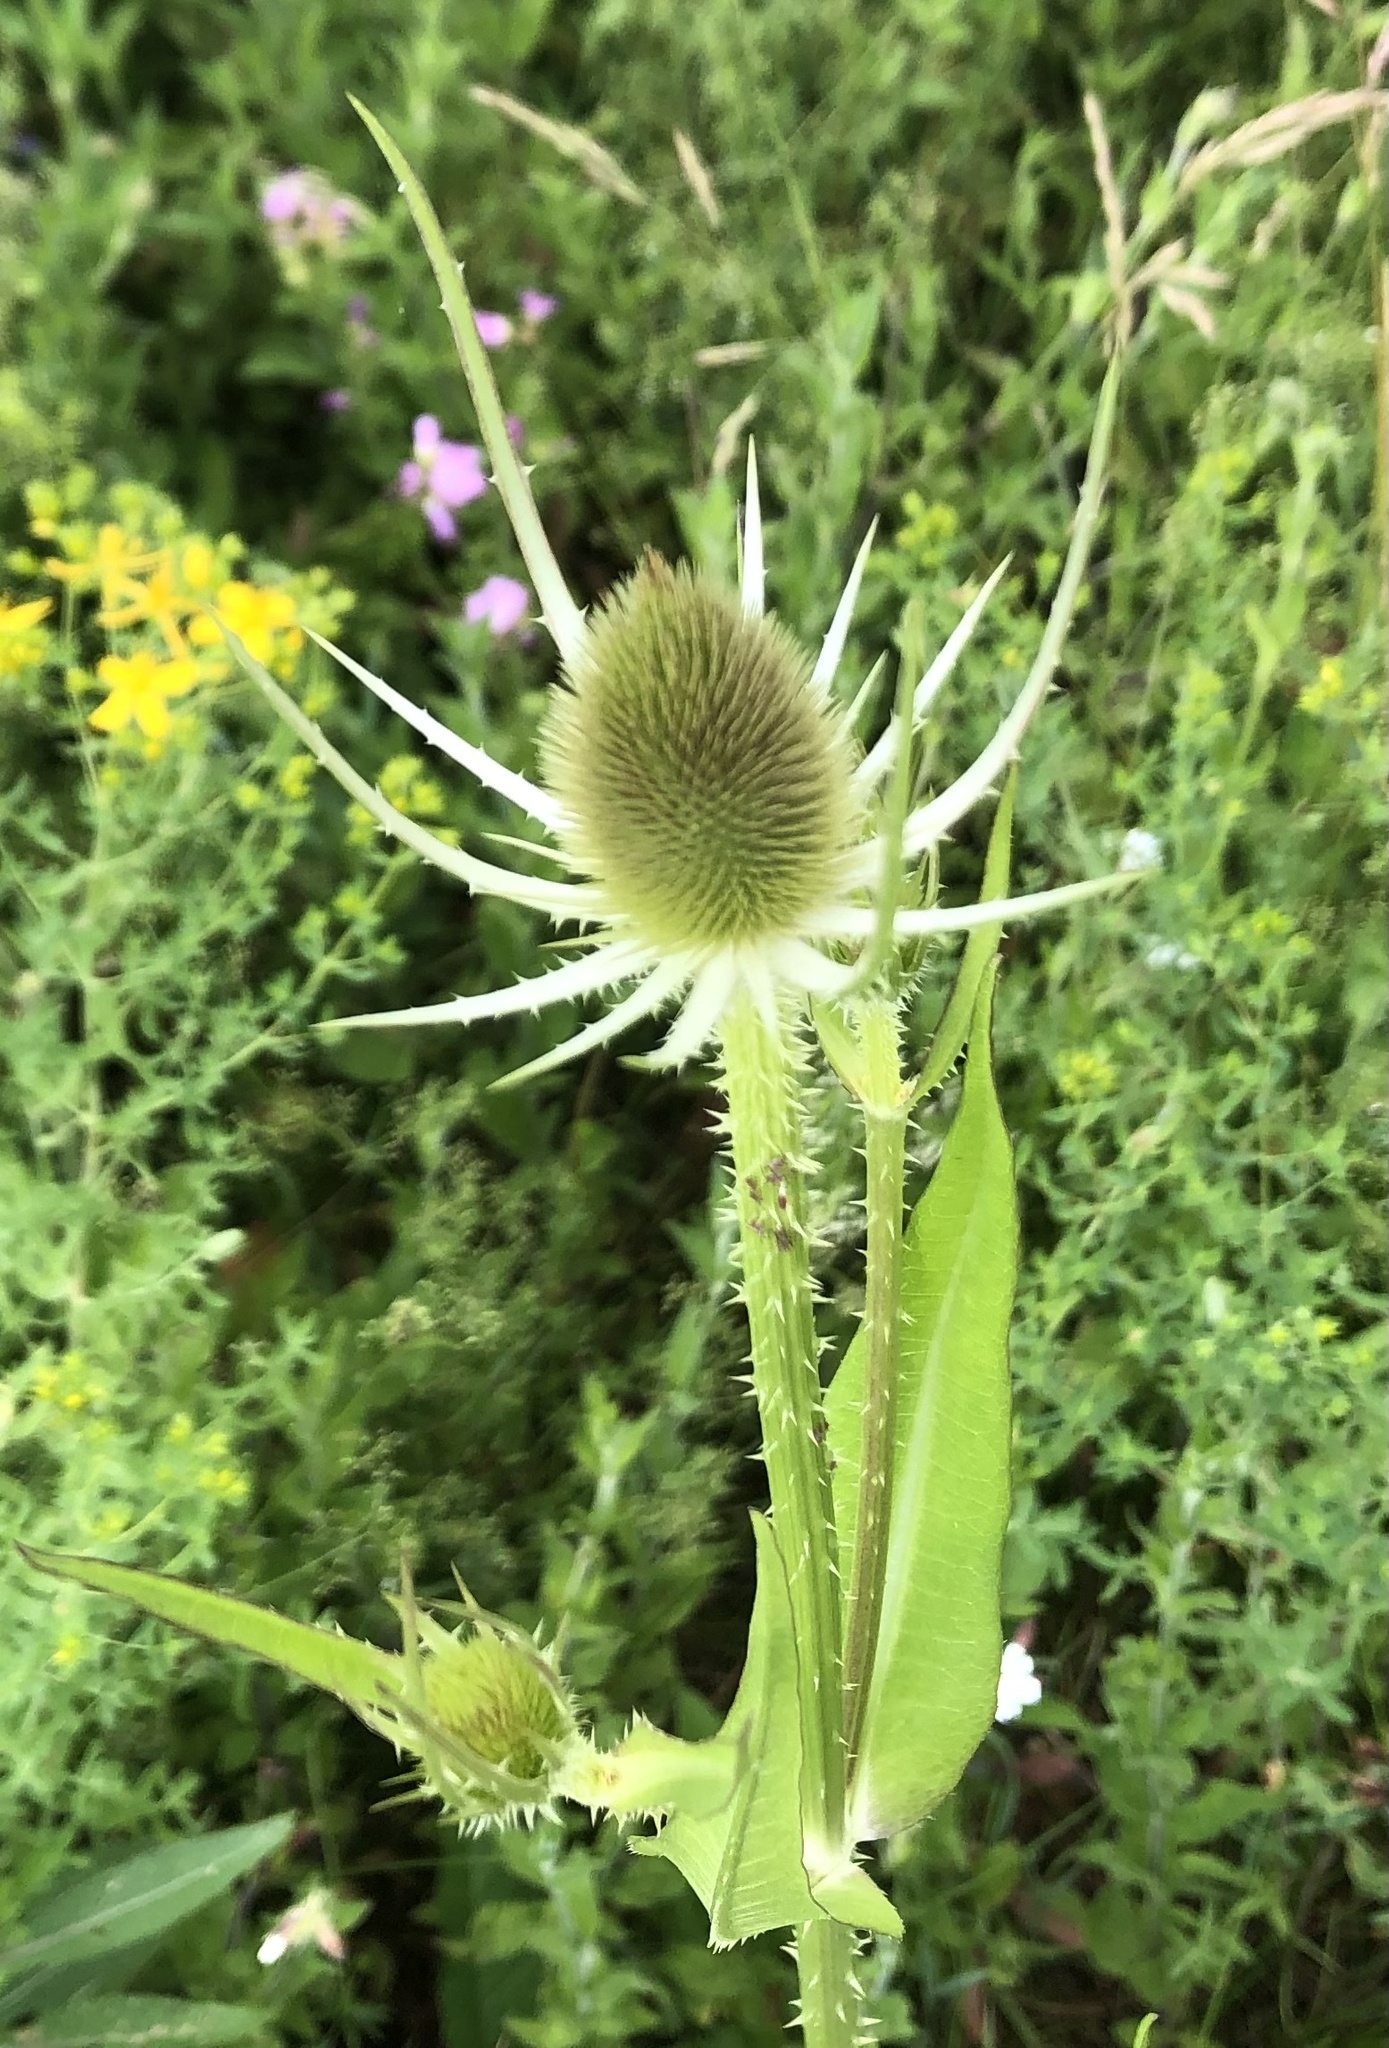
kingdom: Plantae
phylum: Tracheophyta
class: Magnoliopsida
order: Dipsacales
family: Caprifoliaceae
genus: Dipsacus
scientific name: Dipsacus fullonum
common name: Teasel
